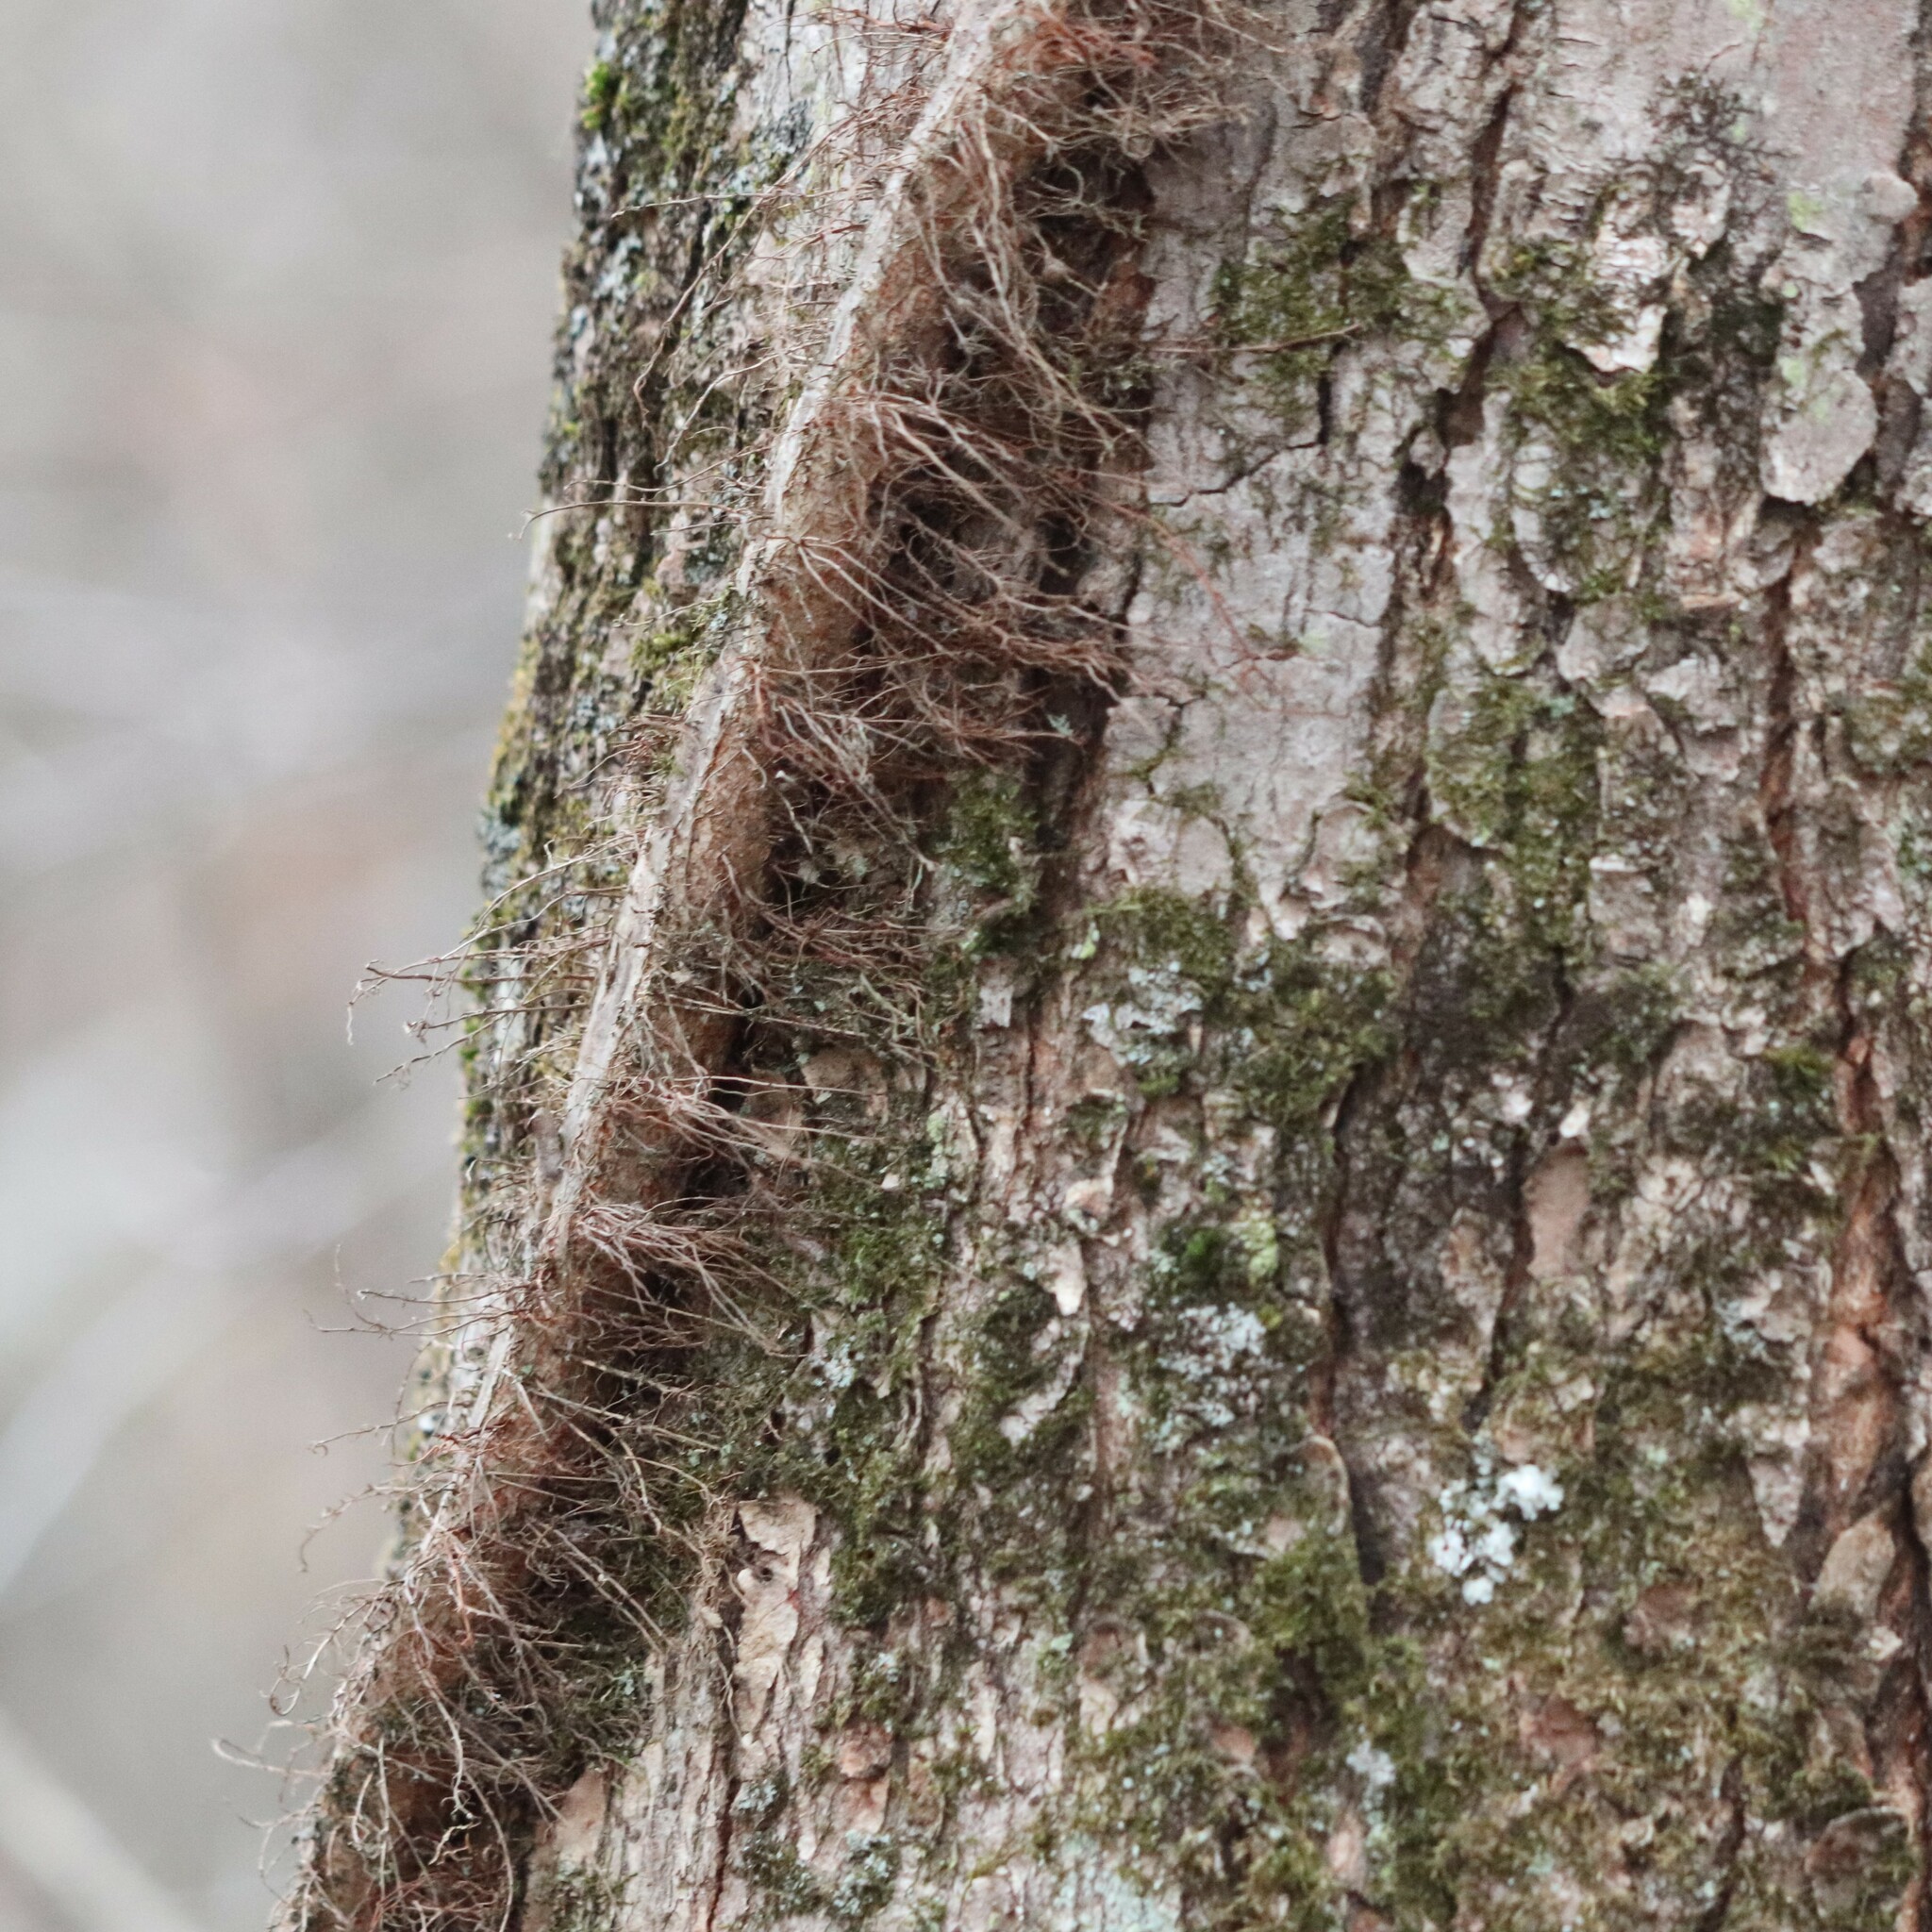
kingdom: Plantae
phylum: Tracheophyta
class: Magnoliopsida
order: Sapindales
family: Anacardiaceae
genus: Toxicodendron
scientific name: Toxicodendron radicans
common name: Poison ivy
